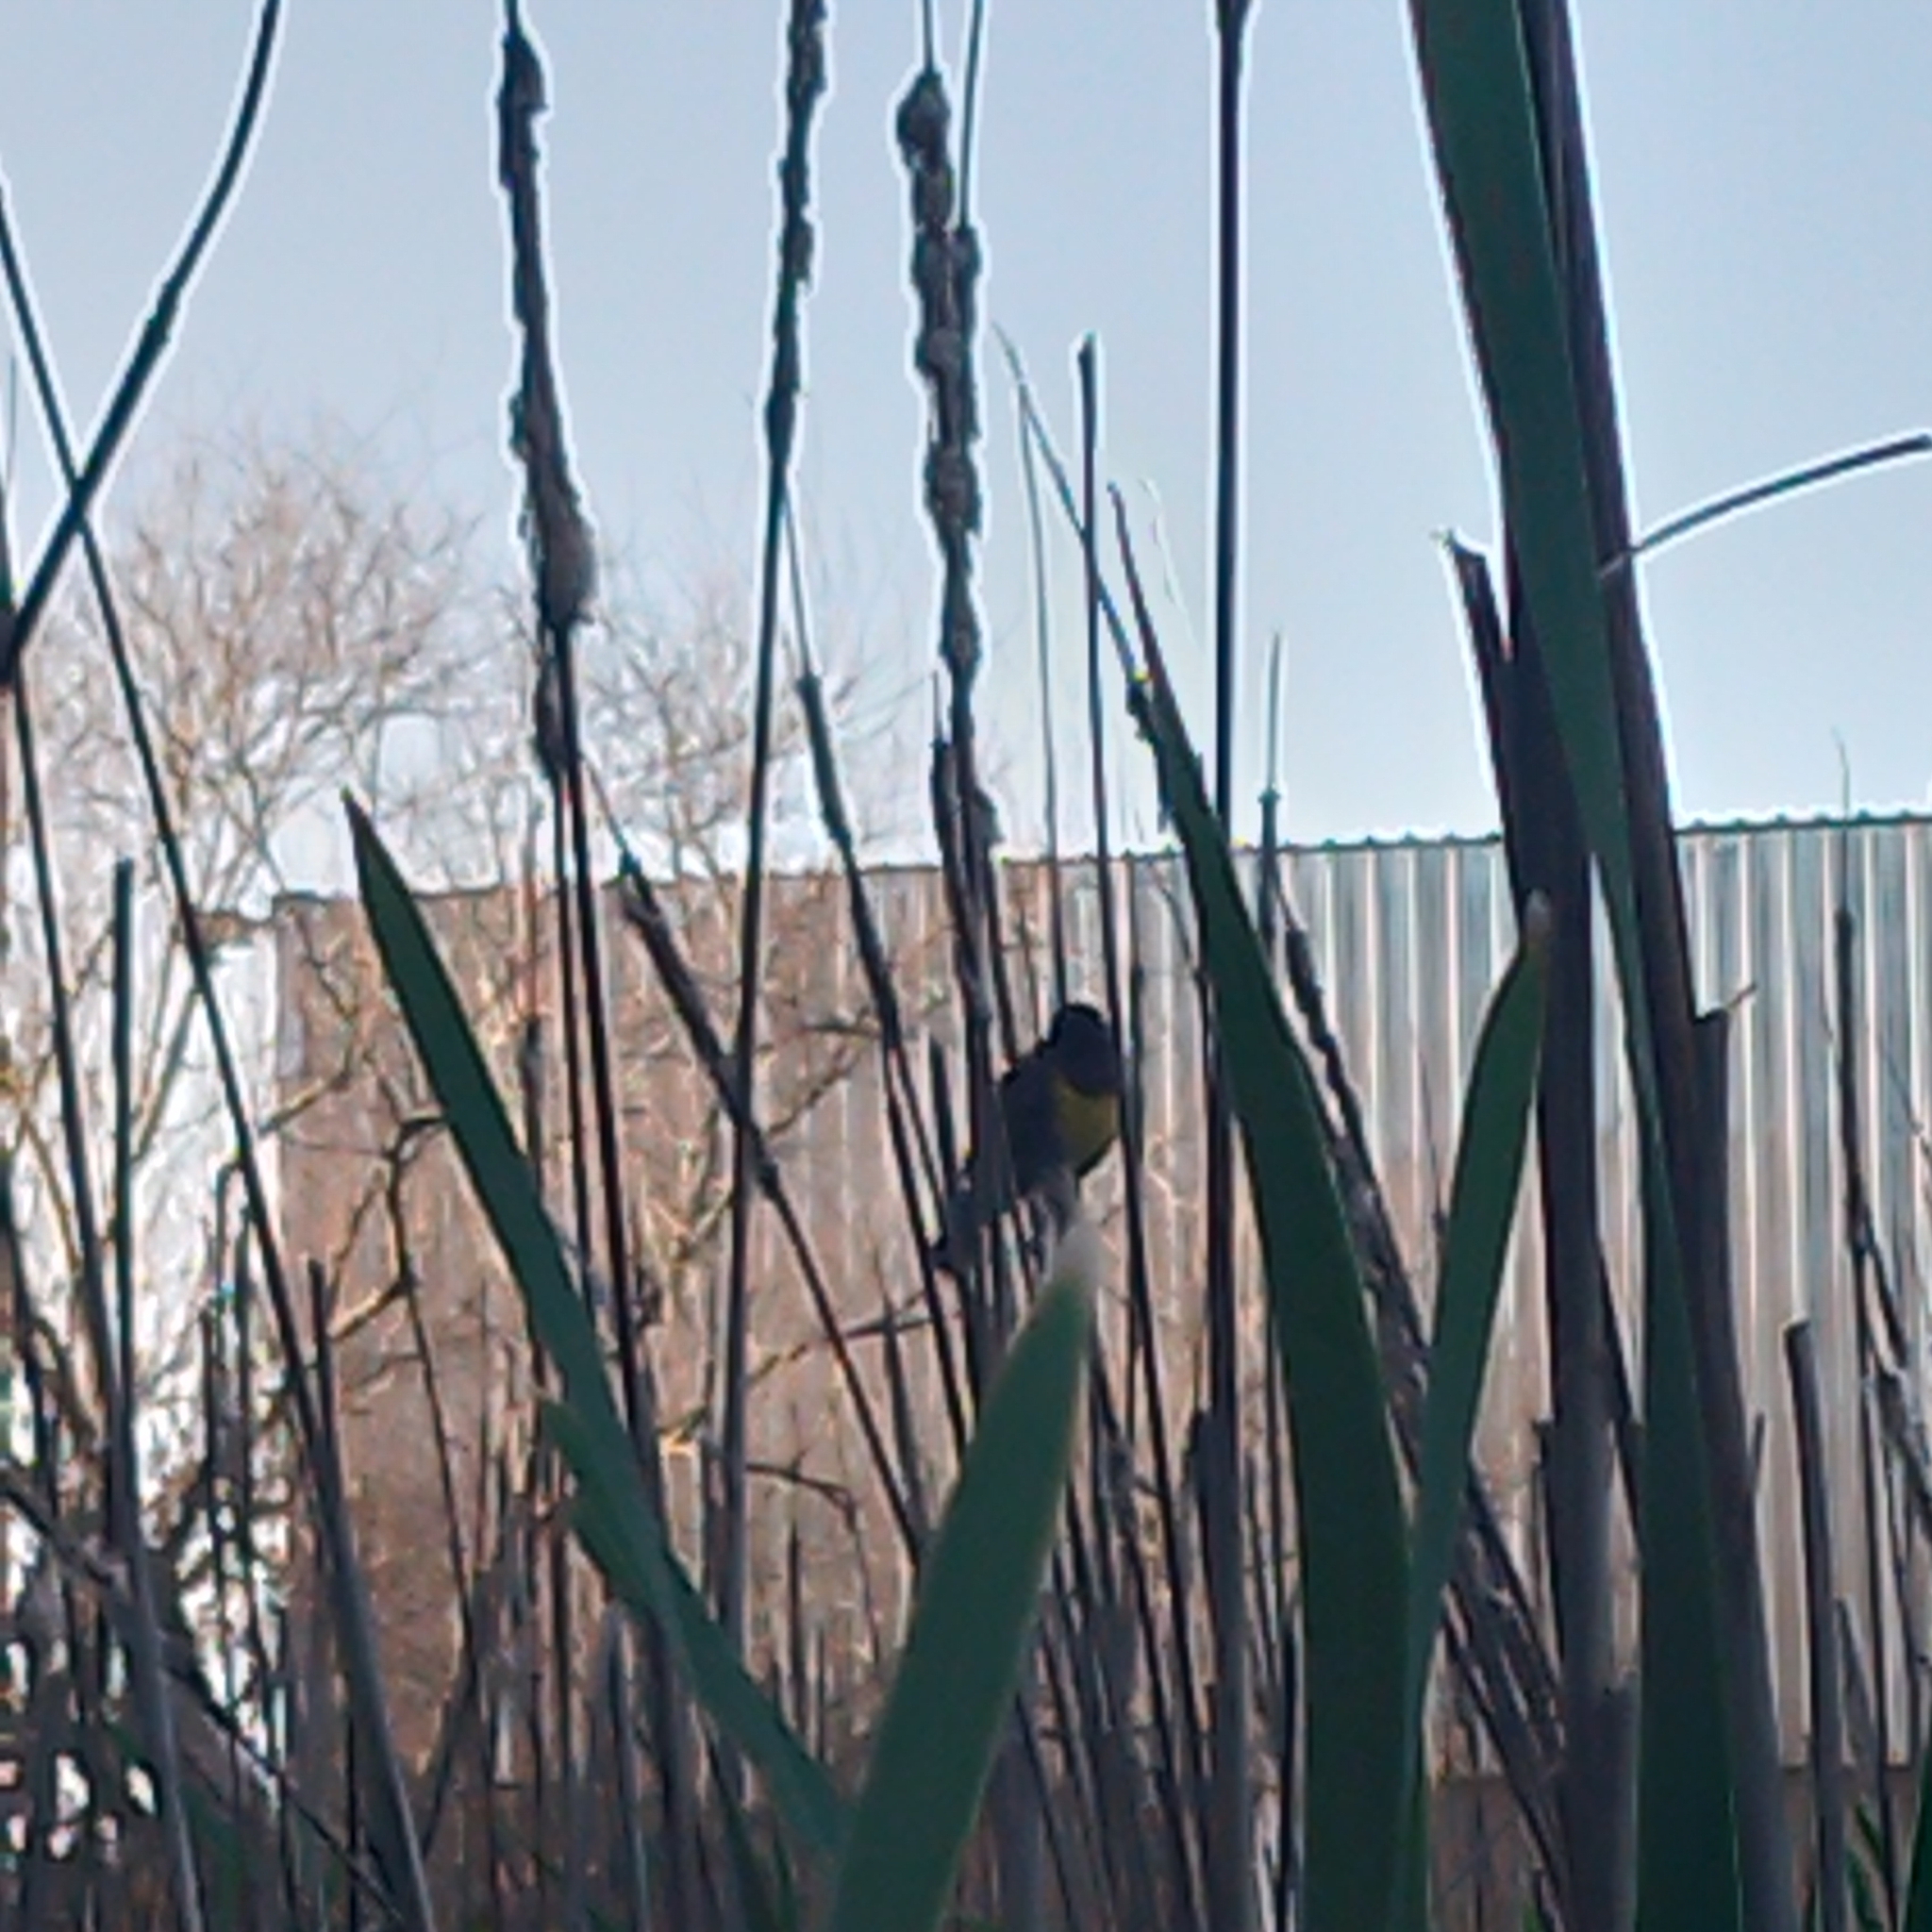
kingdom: Animalia
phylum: Chordata
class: Aves
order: Passeriformes
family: Icteridae
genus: Pseudoleistes
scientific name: Pseudoleistes virescens
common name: Brown-and-yellow marshbird
